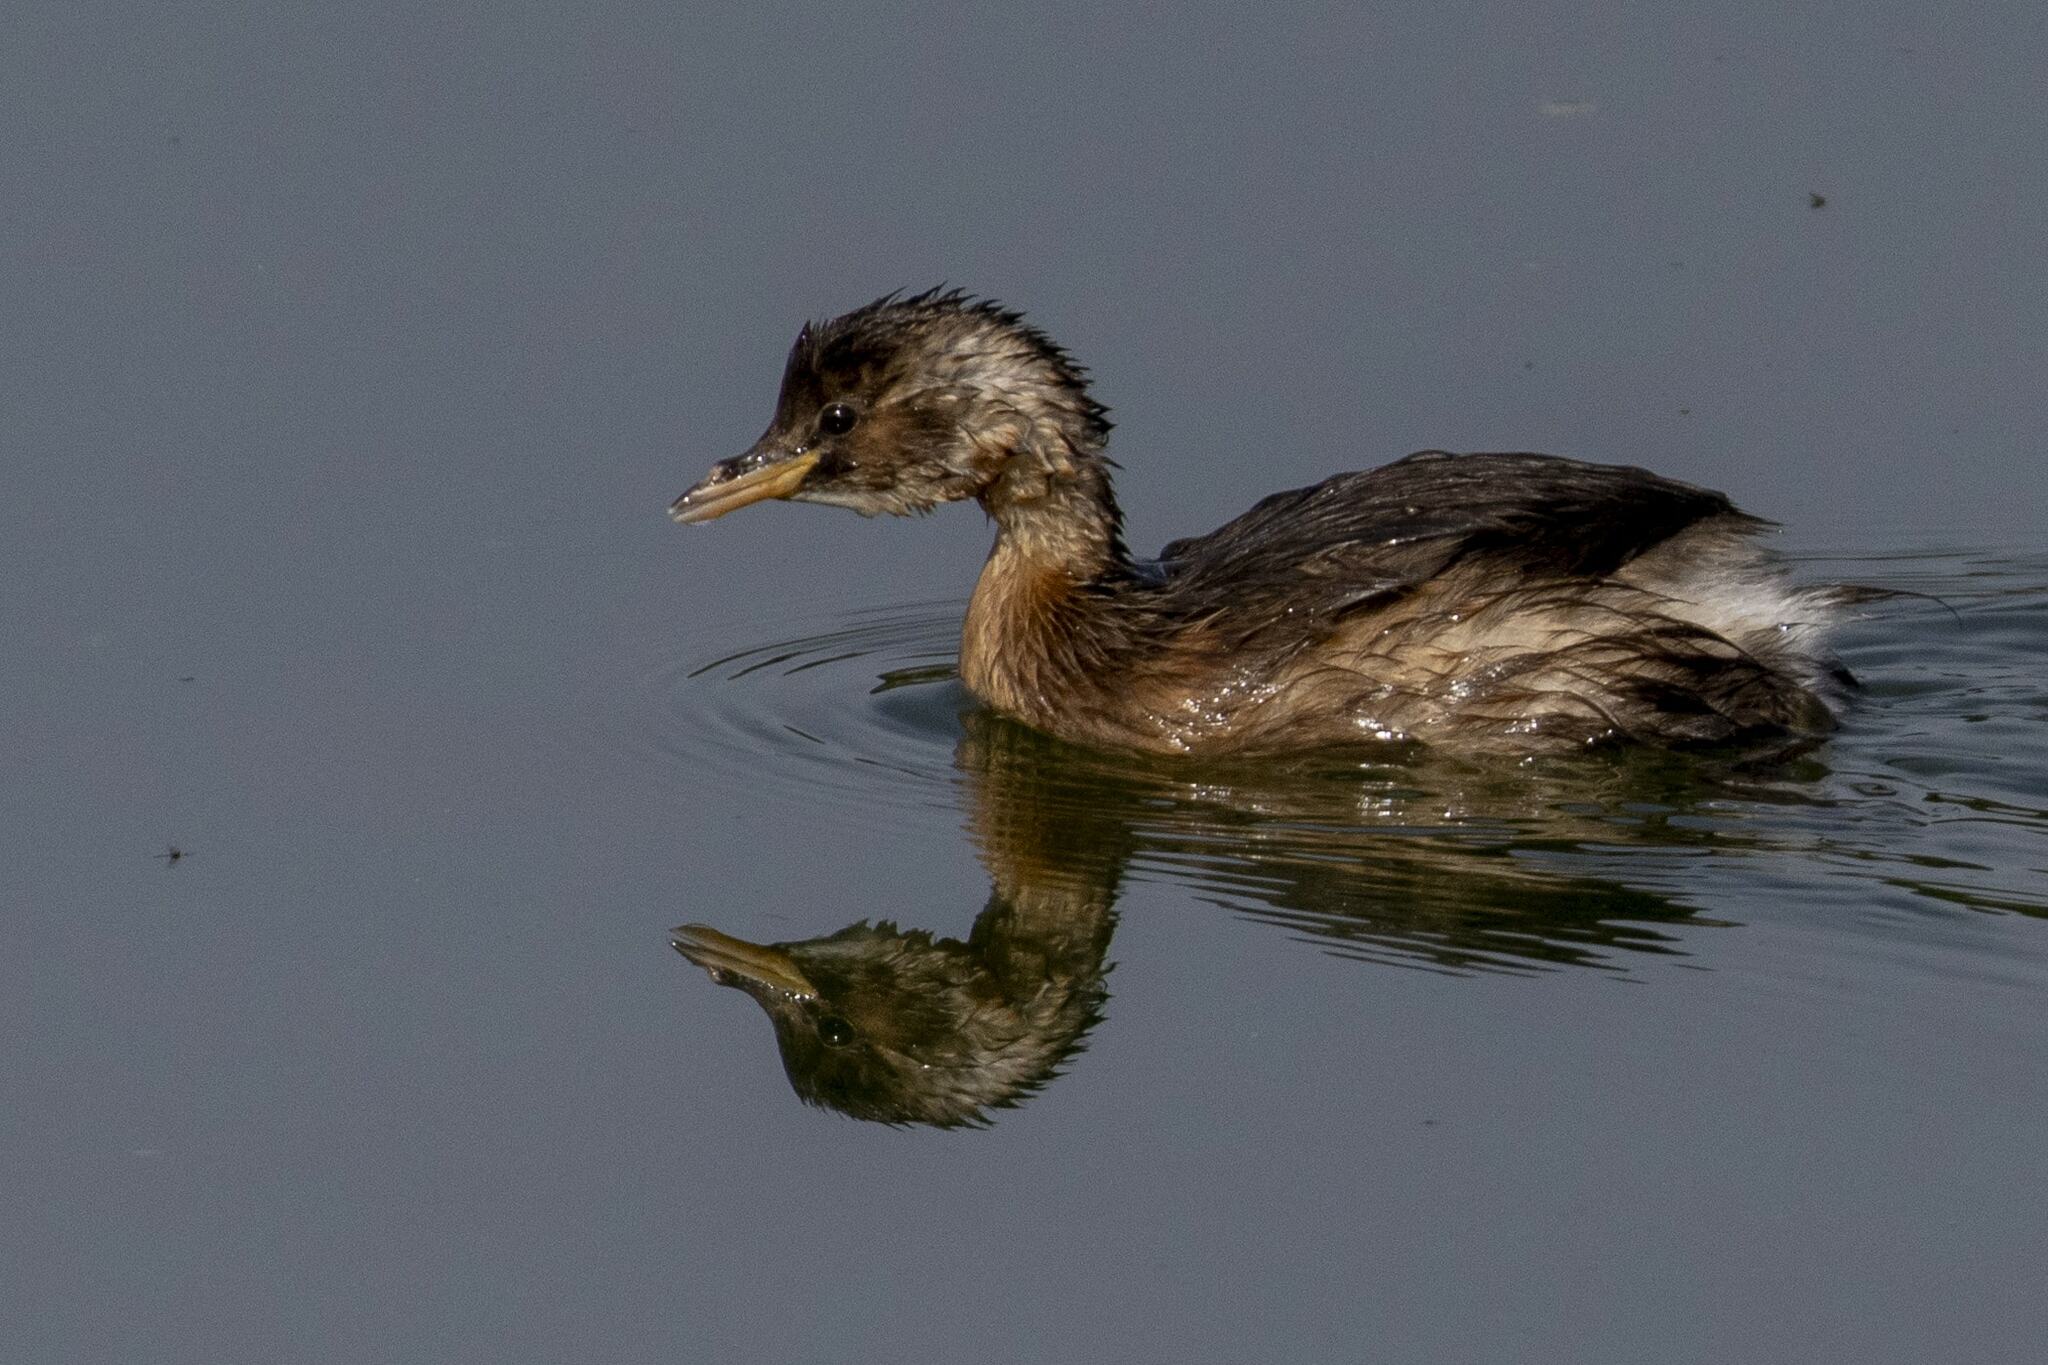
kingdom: Animalia
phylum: Chordata
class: Aves
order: Podicipediformes
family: Podicipedidae
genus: Tachybaptus
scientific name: Tachybaptus ruficollis
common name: Little grebe
